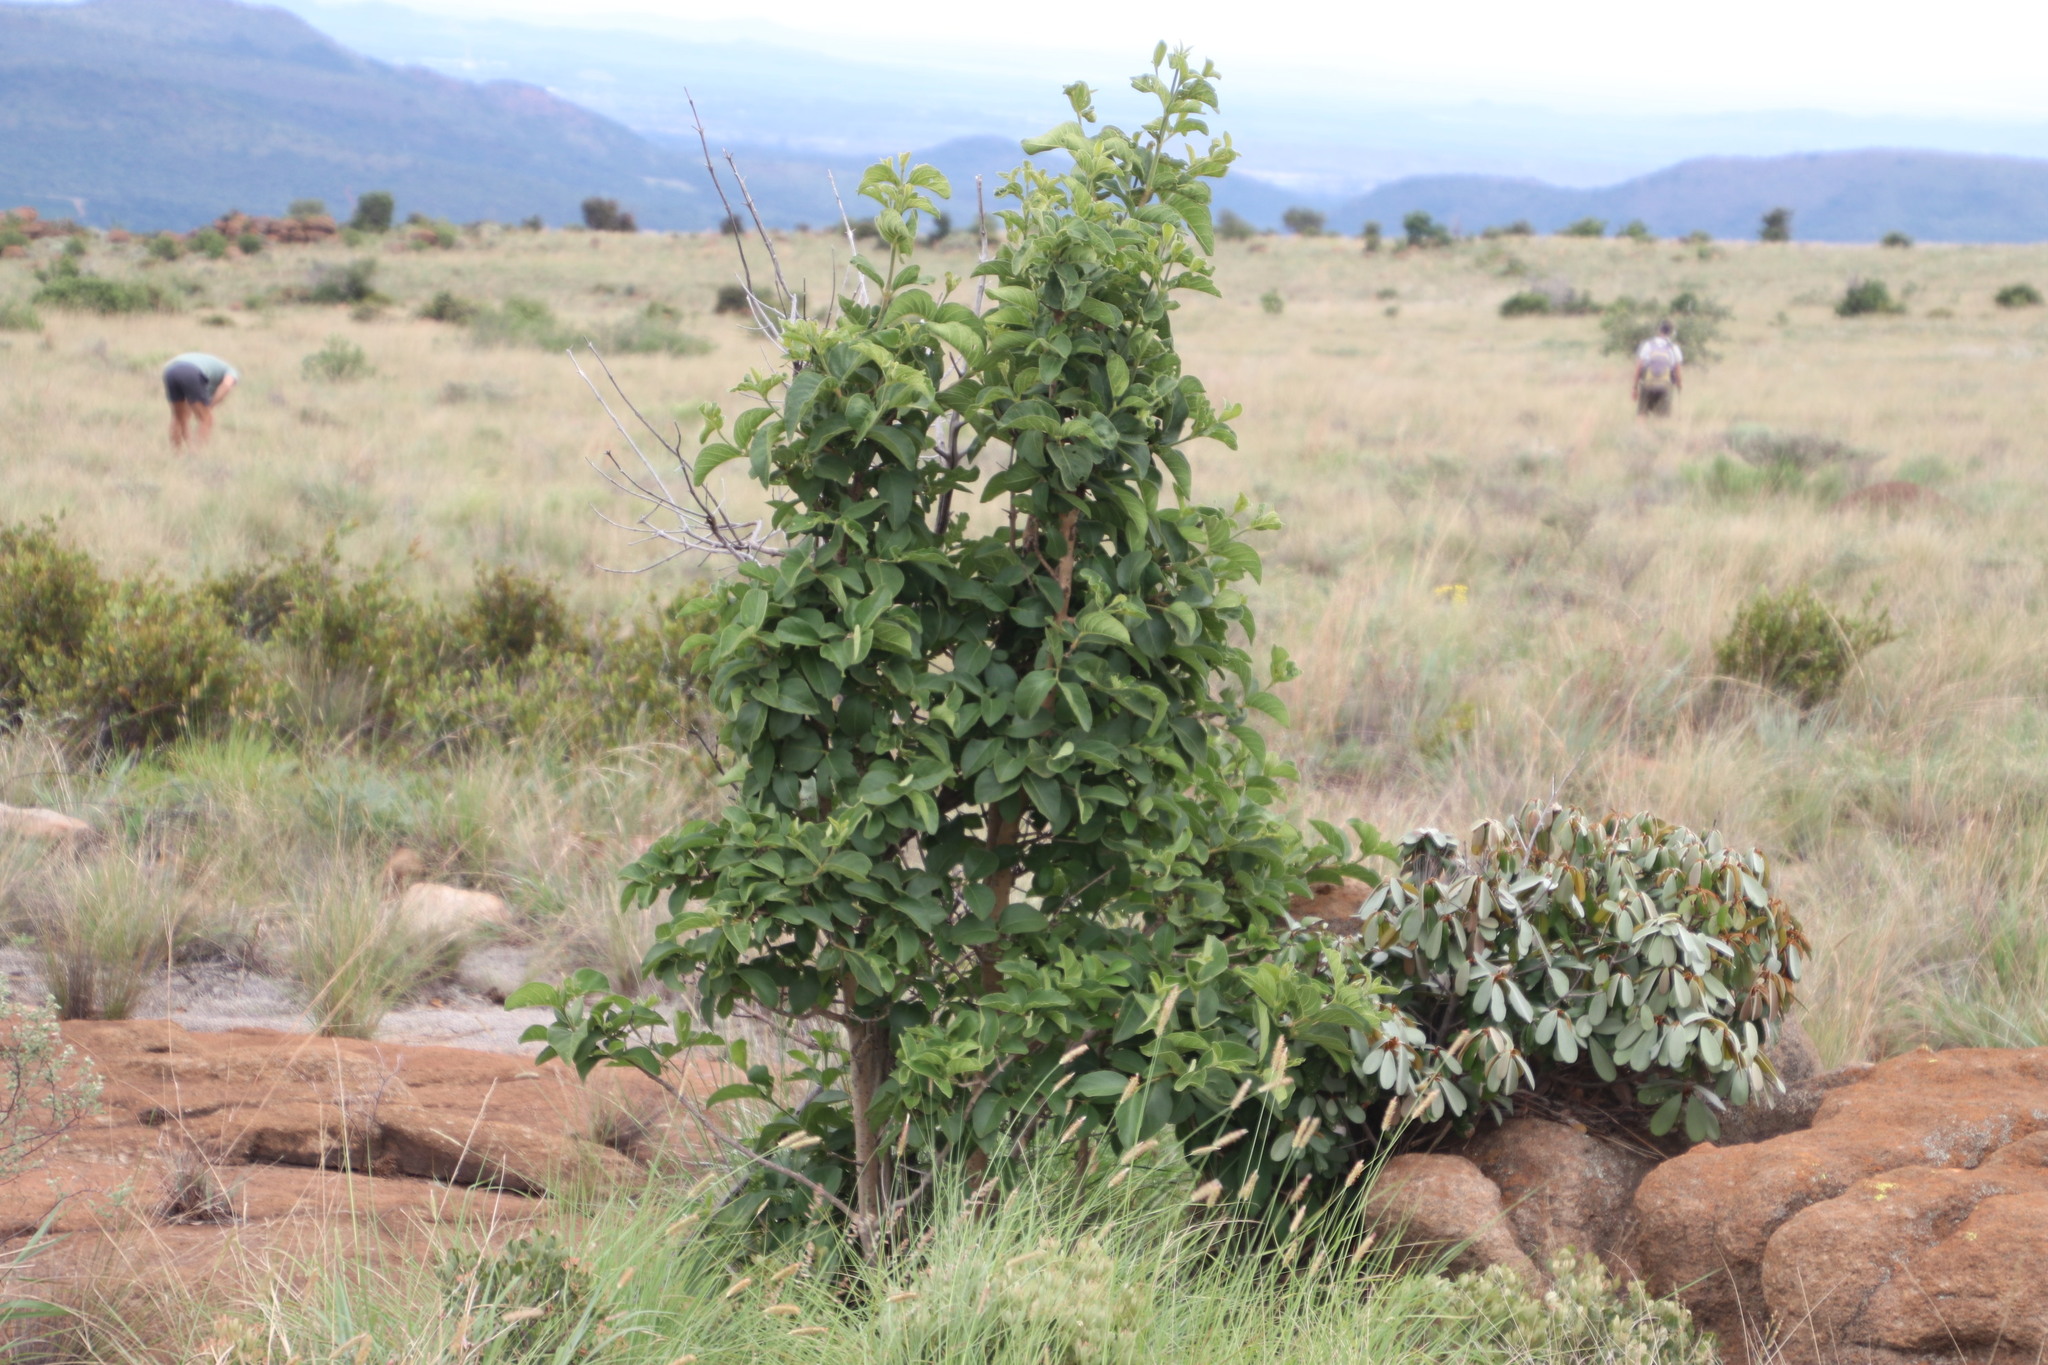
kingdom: Plantae
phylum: Tracheophyta
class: Magnoliopsida
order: Gentianales
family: Rubiaceae
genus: Vangueria
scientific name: Vangueria infausta
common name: Medlar
